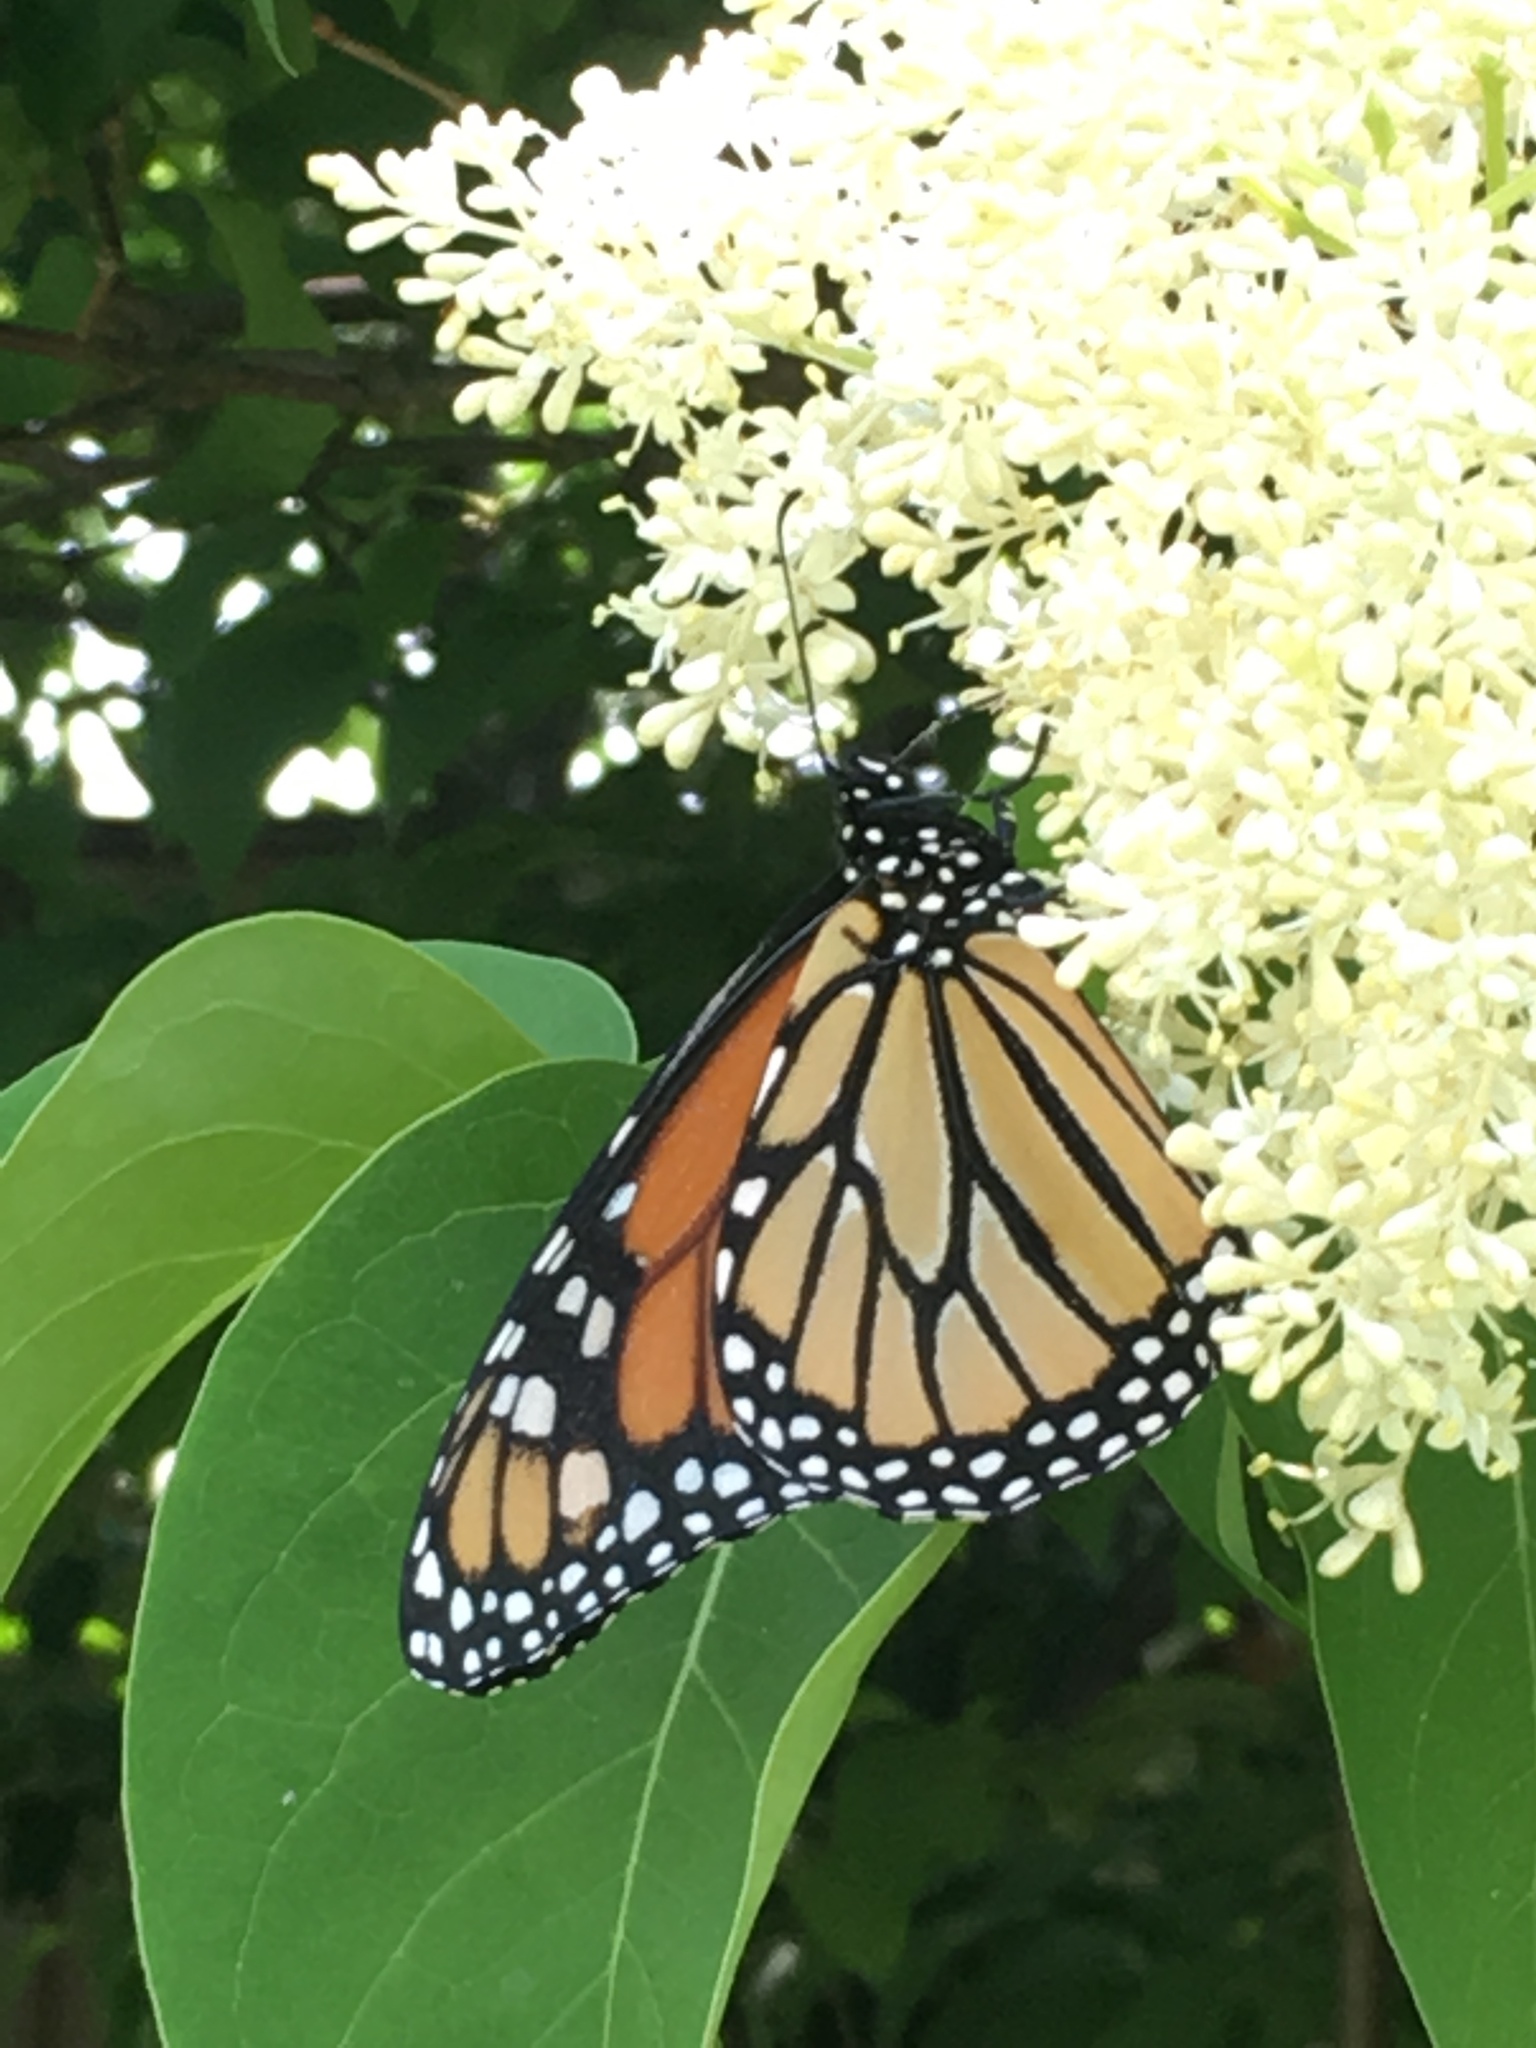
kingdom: Animalia
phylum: Arthropoda
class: Insecta
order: Lepidoptera
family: Nymphalidae
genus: Danaus
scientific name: Danaus plexippus
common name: Monarch
